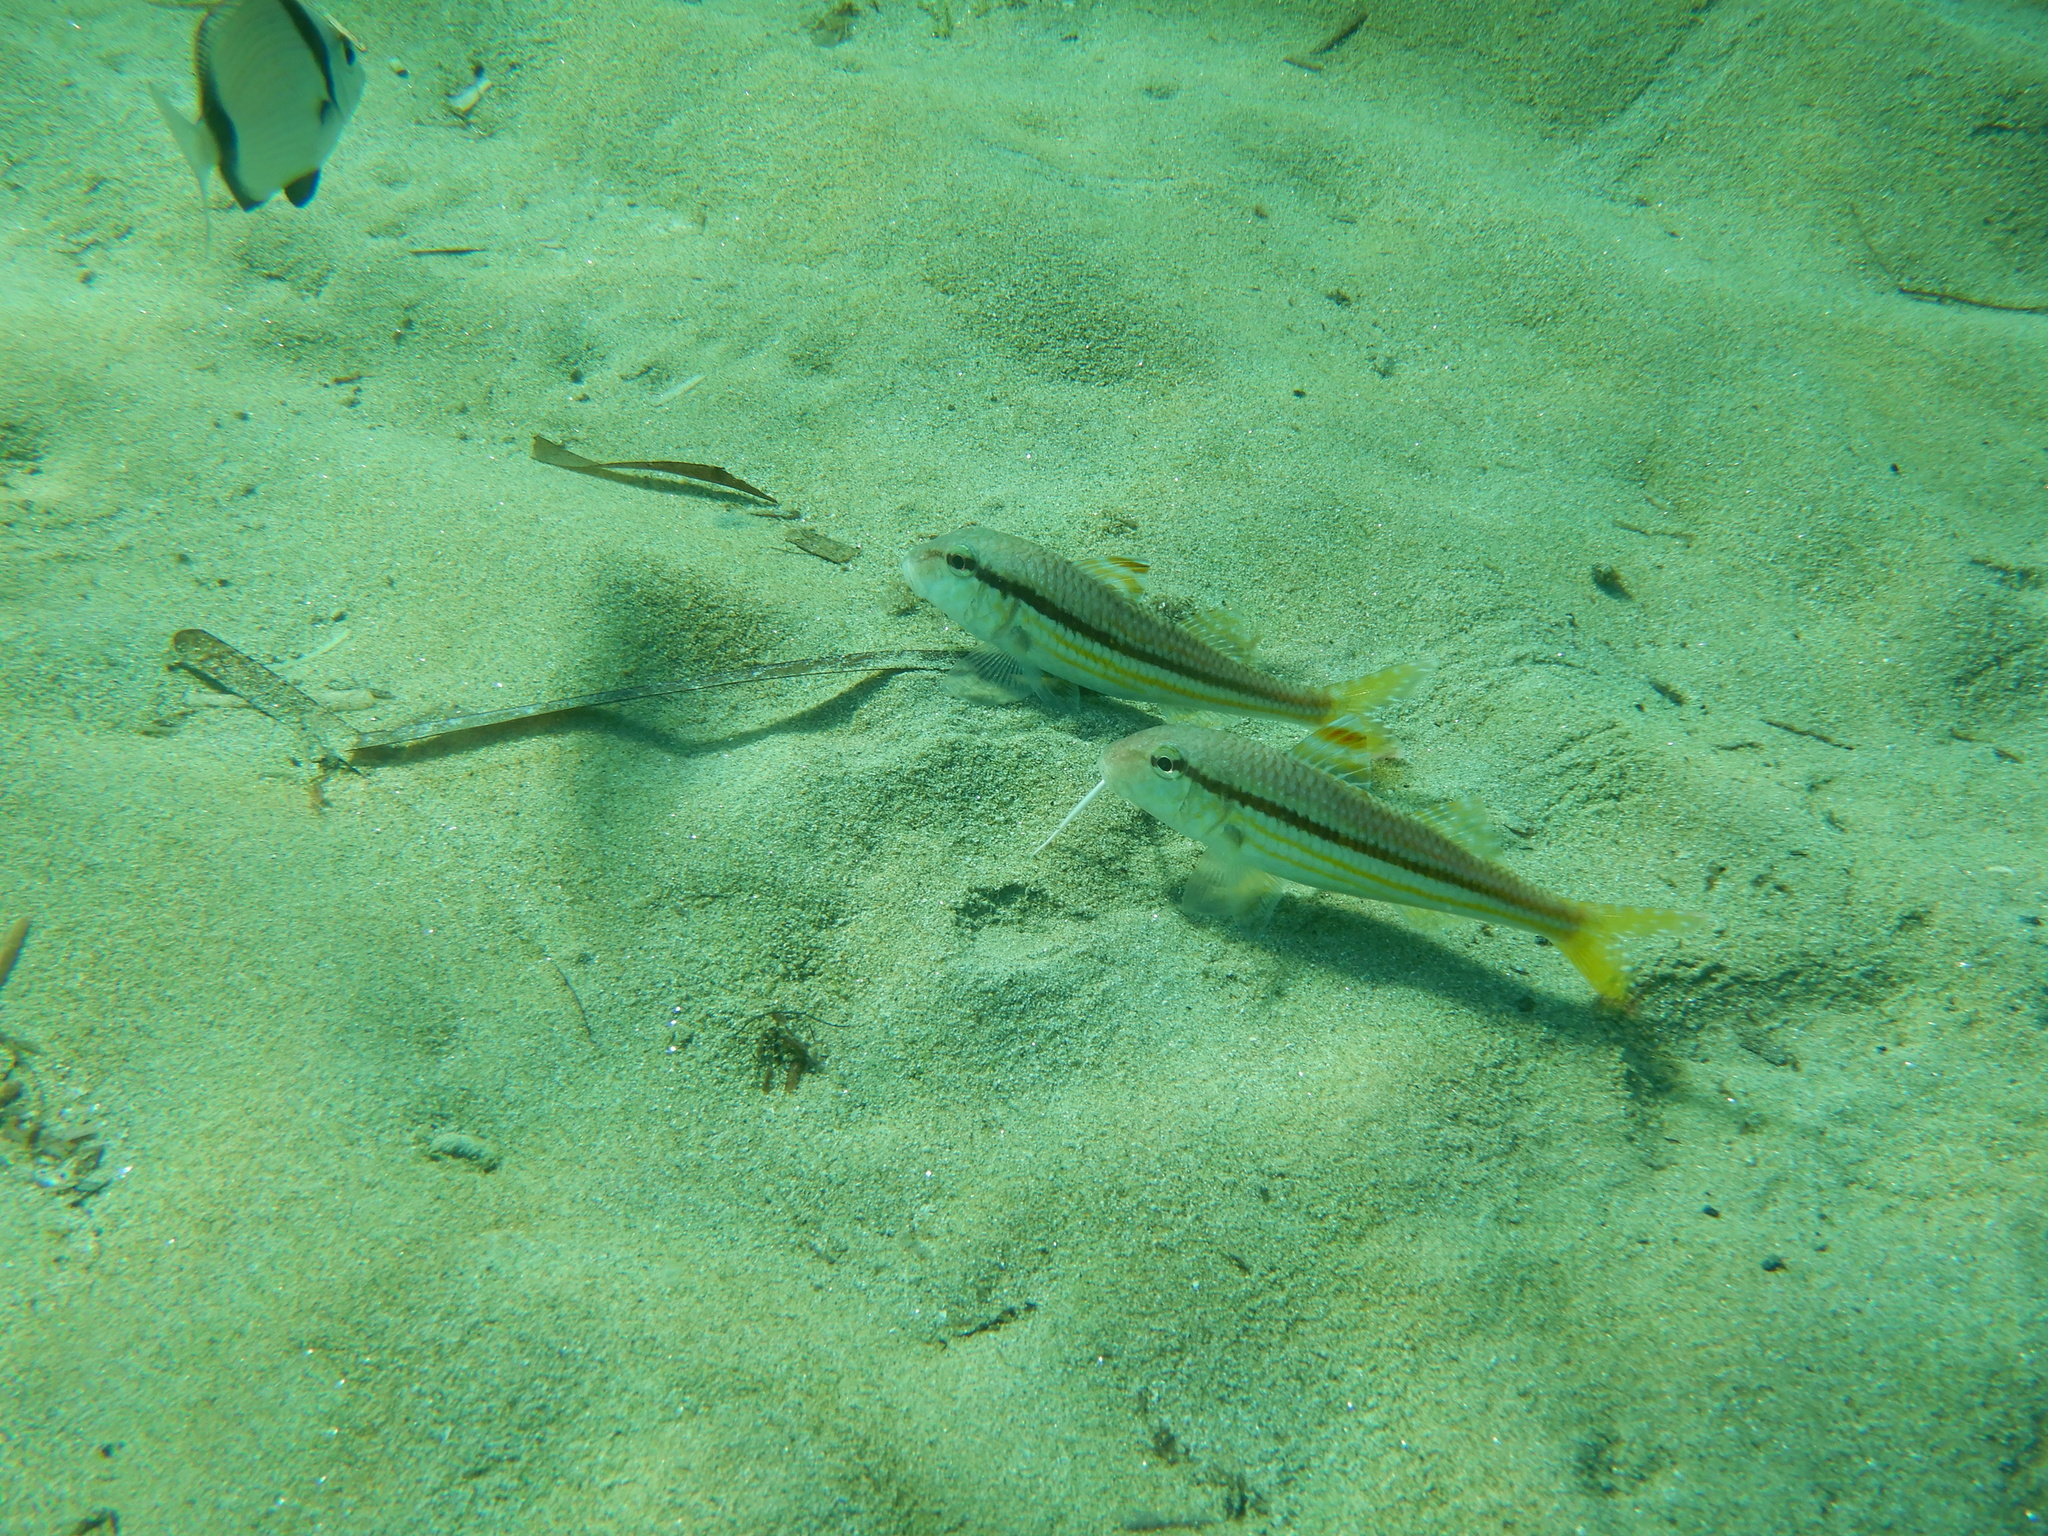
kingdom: Animalia
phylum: Chordata
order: Perciformes
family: Mullidae
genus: Mullus
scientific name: Mullus surmuletus
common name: Red mullet
